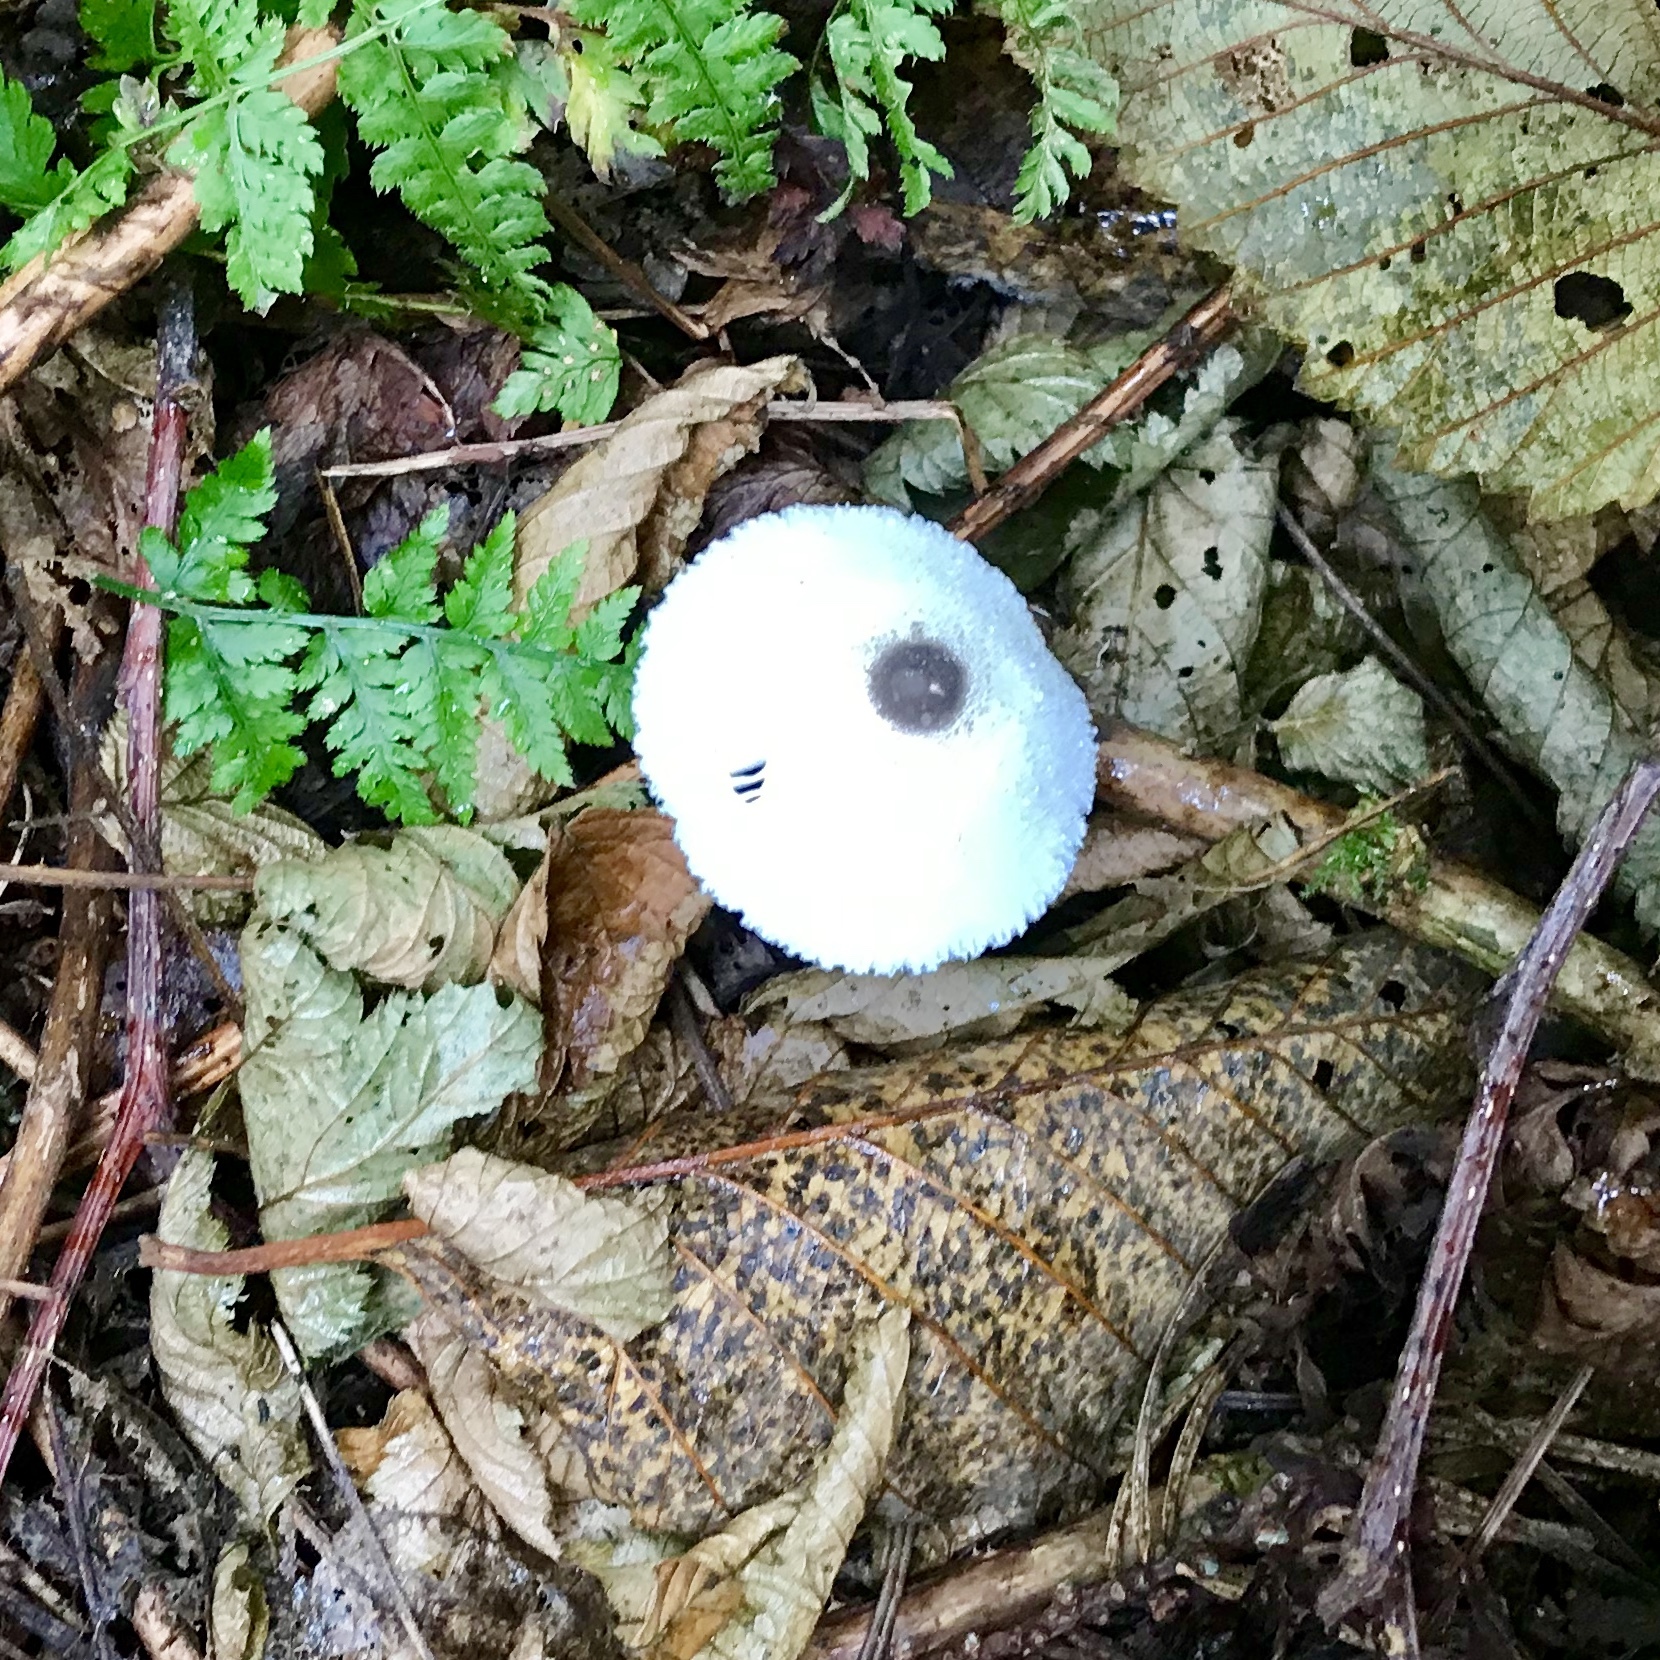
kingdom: Fungi
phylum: Basidiomycota
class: Agaricomycetes
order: Agaricales
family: Agaricaceae
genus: Leucocoprinus
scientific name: Leucocoprinus brebissonii
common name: Skullcap dapperling
